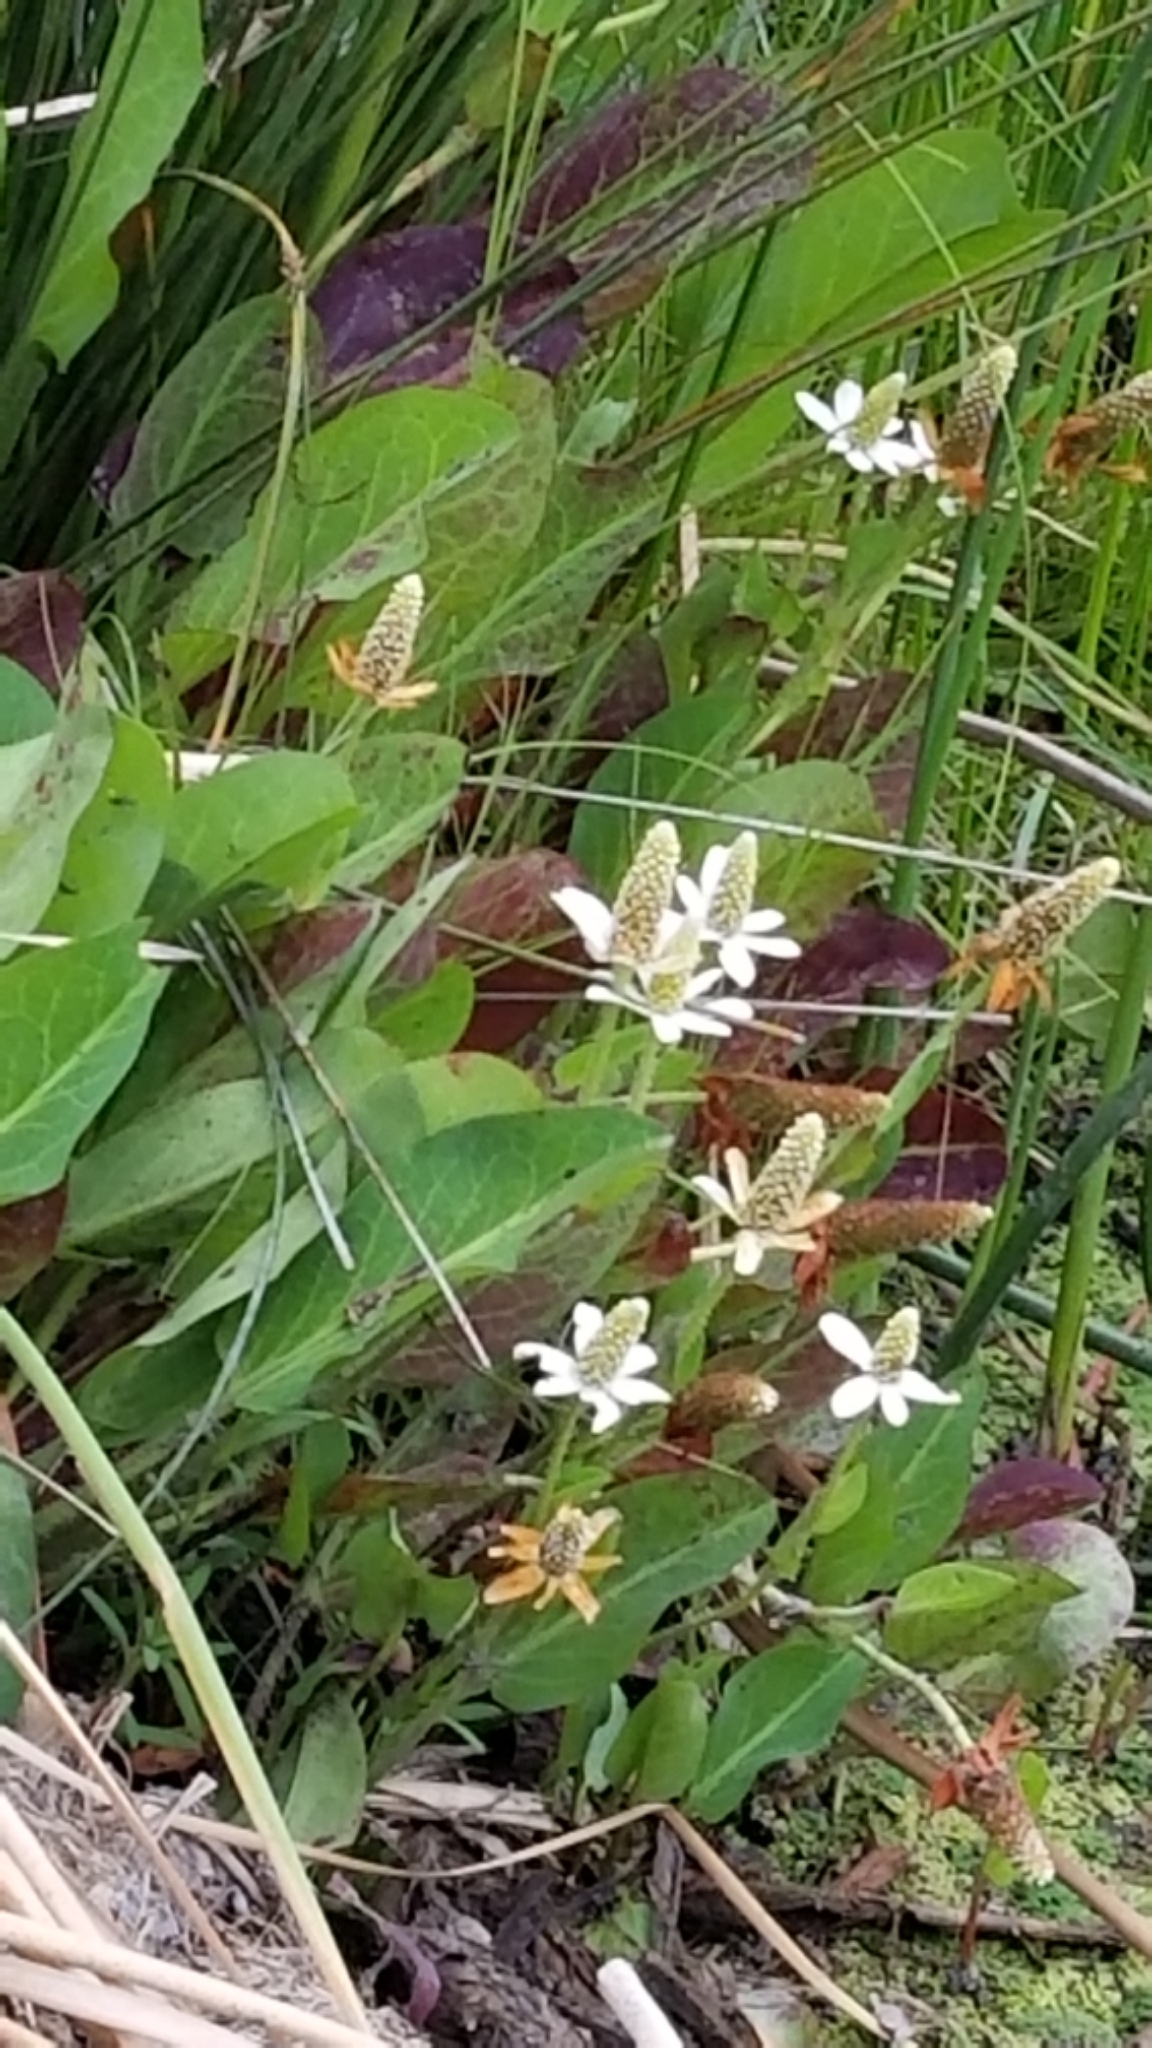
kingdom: Plantae
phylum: Tracheophyta
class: Magnoliopsida
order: Piperales
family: Saururaceae
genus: Anemopsis
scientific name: Anemopsis californica
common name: Apache-beads
